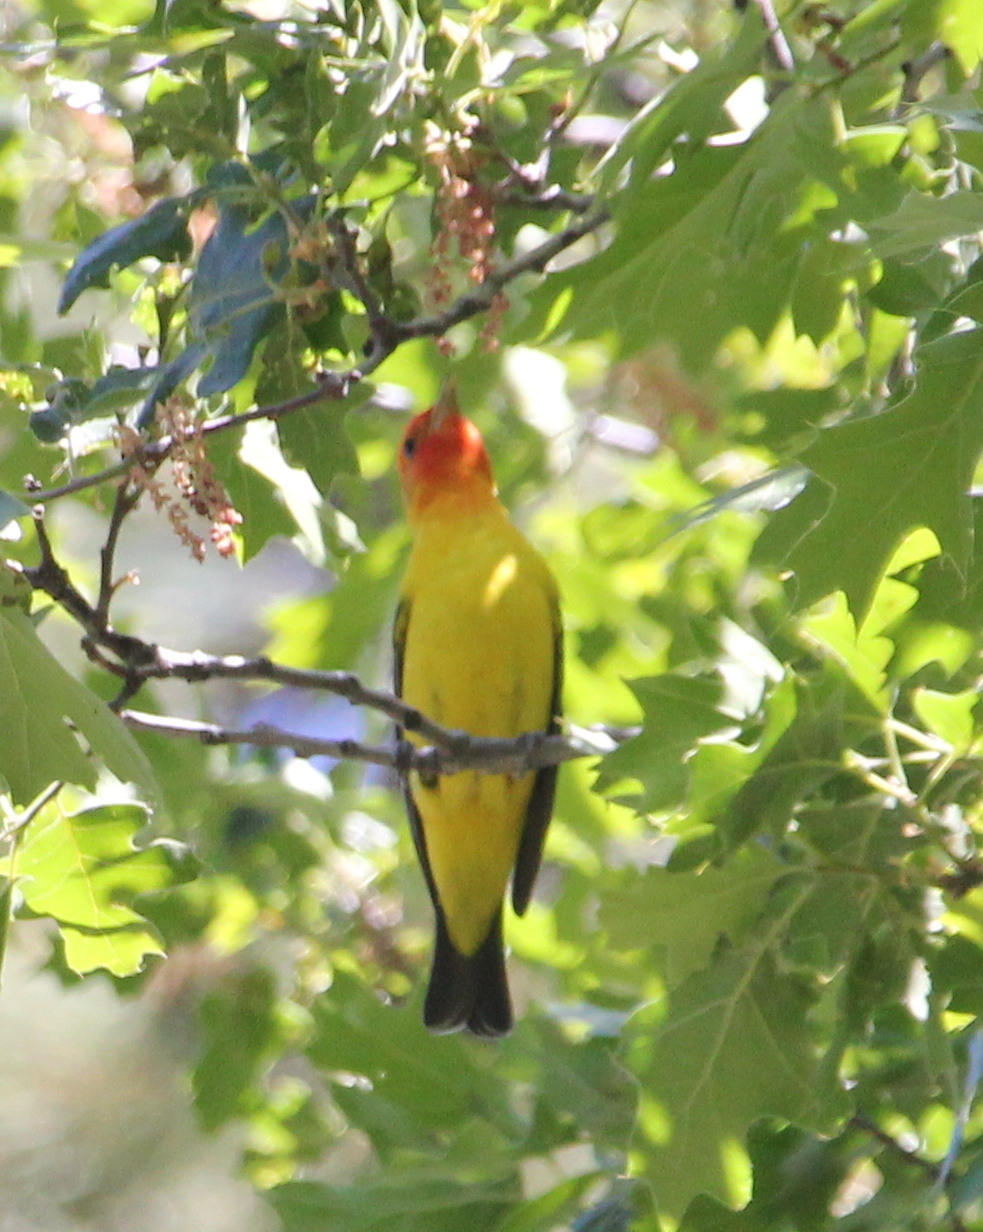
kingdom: Animalia
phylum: Chordata
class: Aves
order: Passeriformes
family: Cardinalidae
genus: Piranga
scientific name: Piranga ludoviciana
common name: Western tanager
